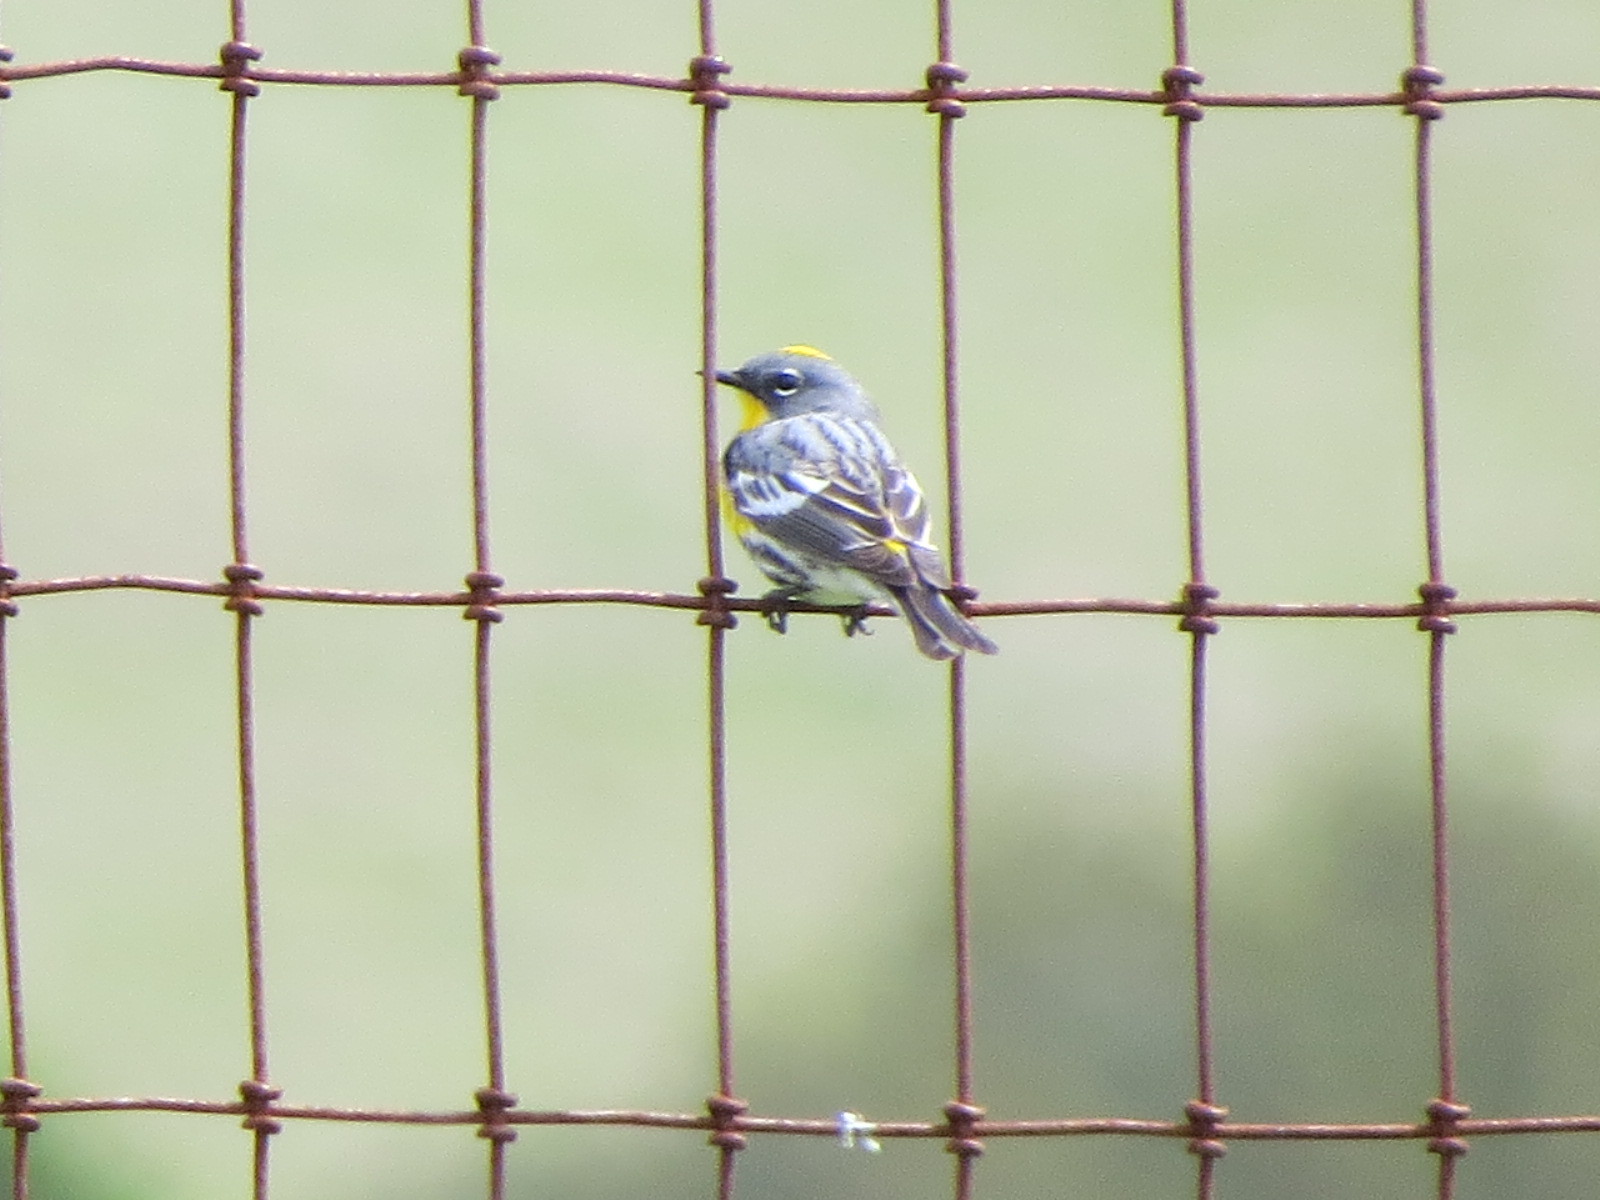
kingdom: Animalia
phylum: Chordata
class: Aves
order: Passeriformes
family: Parulidae
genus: Setophaga
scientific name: Setophaga auduboni
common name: Audubon's warbler
